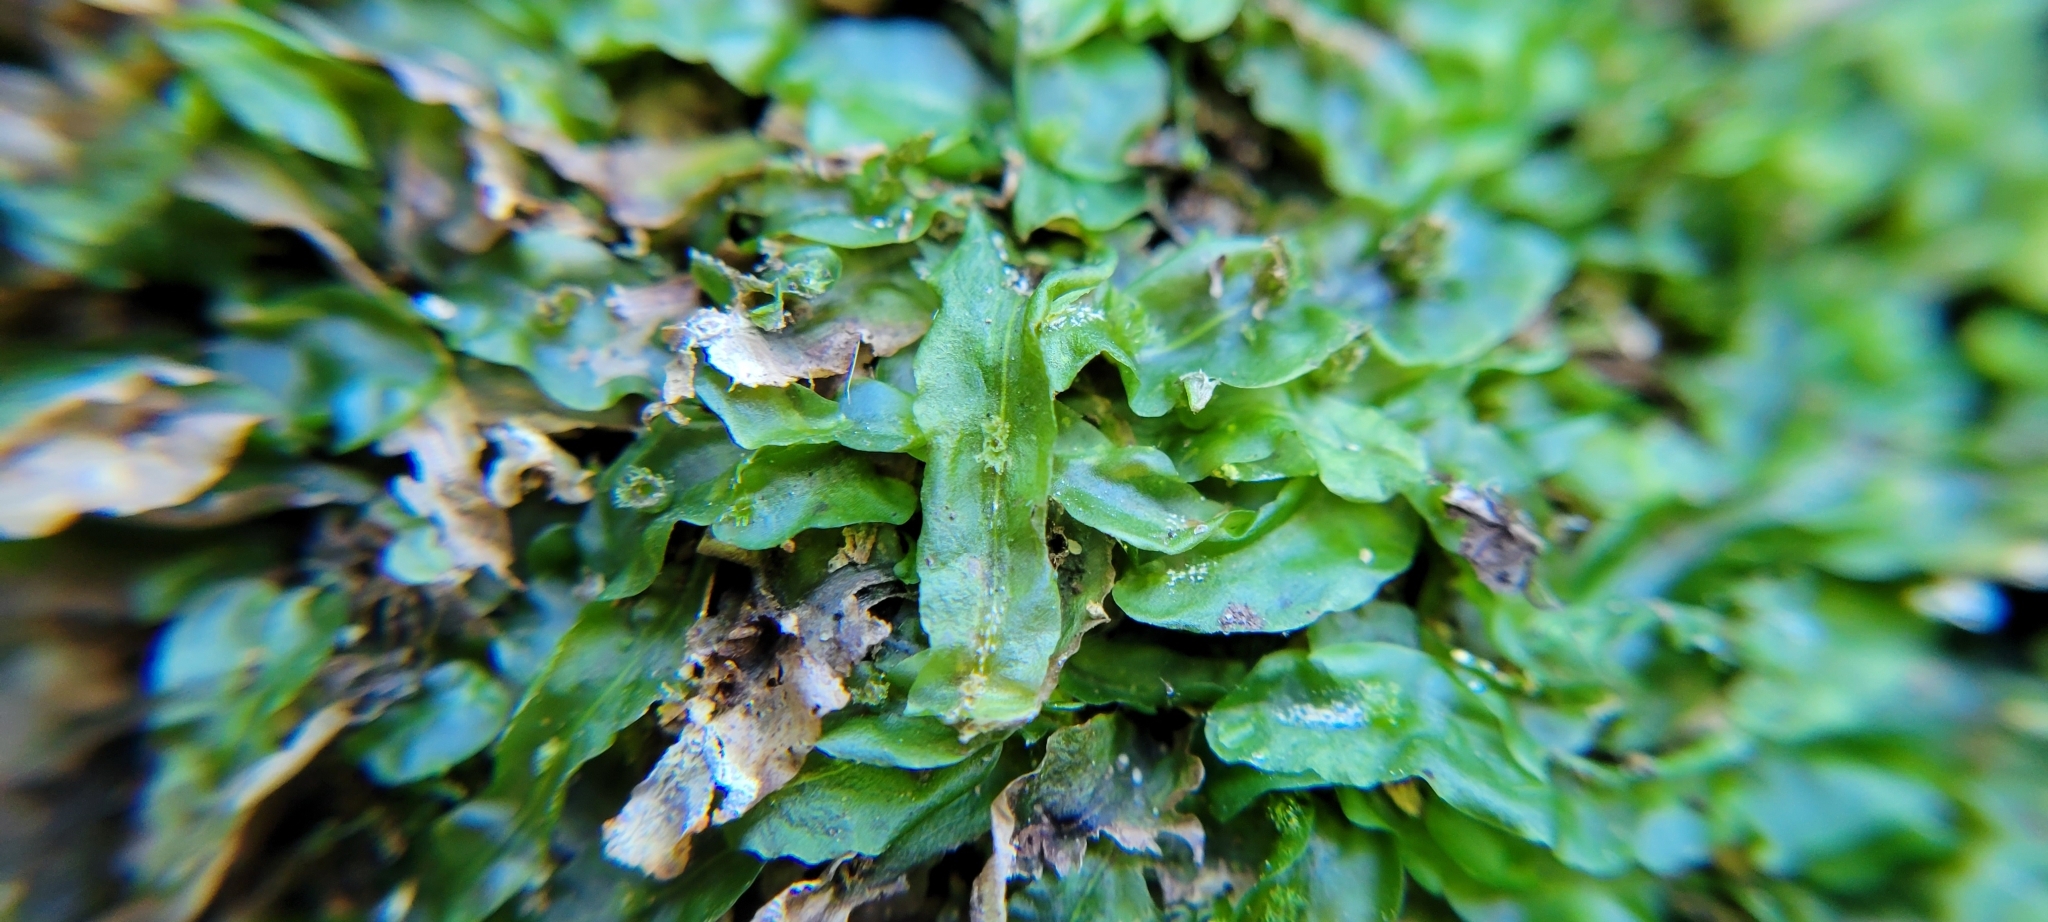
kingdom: Plantae
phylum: Marchantiophyta
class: Jungermanniopsida
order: Pallaviciniales
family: Pallaviciniaceae
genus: Pallavicinia
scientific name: Pallavicinia lyellii
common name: Veilwort
